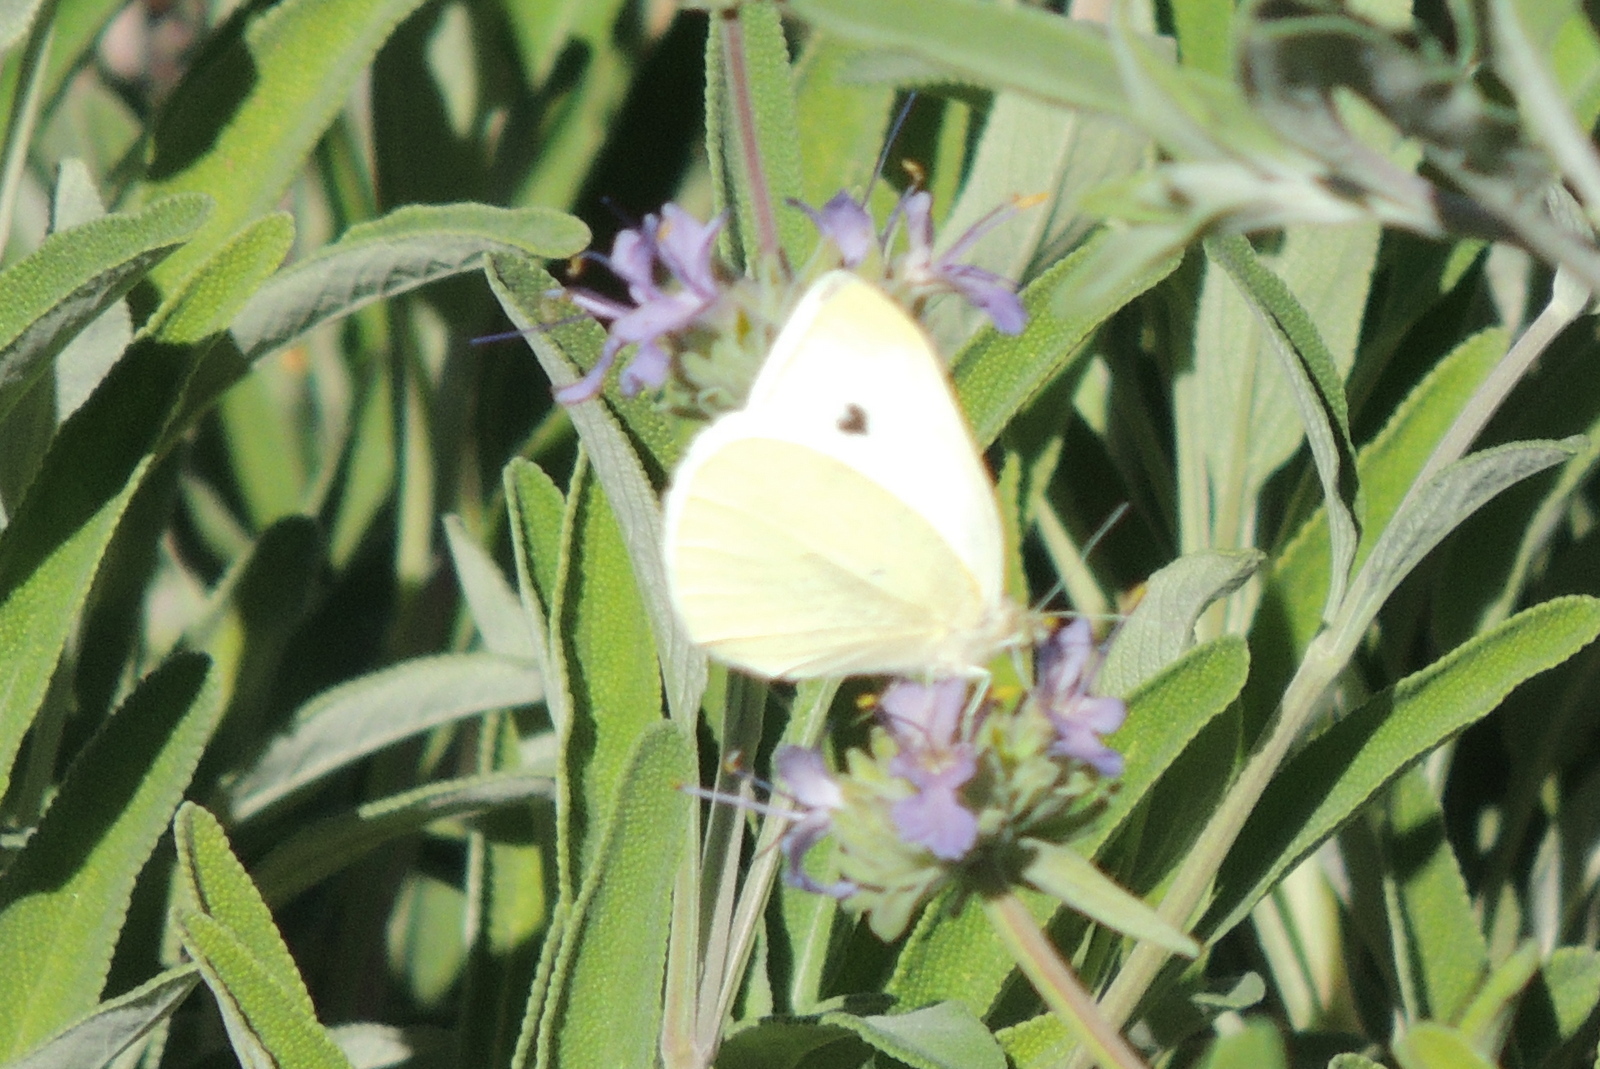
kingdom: Animalia
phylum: Arthropoda
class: Insecta
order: Lepidoptera
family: Pieridae
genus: Pieris
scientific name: Pieris rapae
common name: Small white
